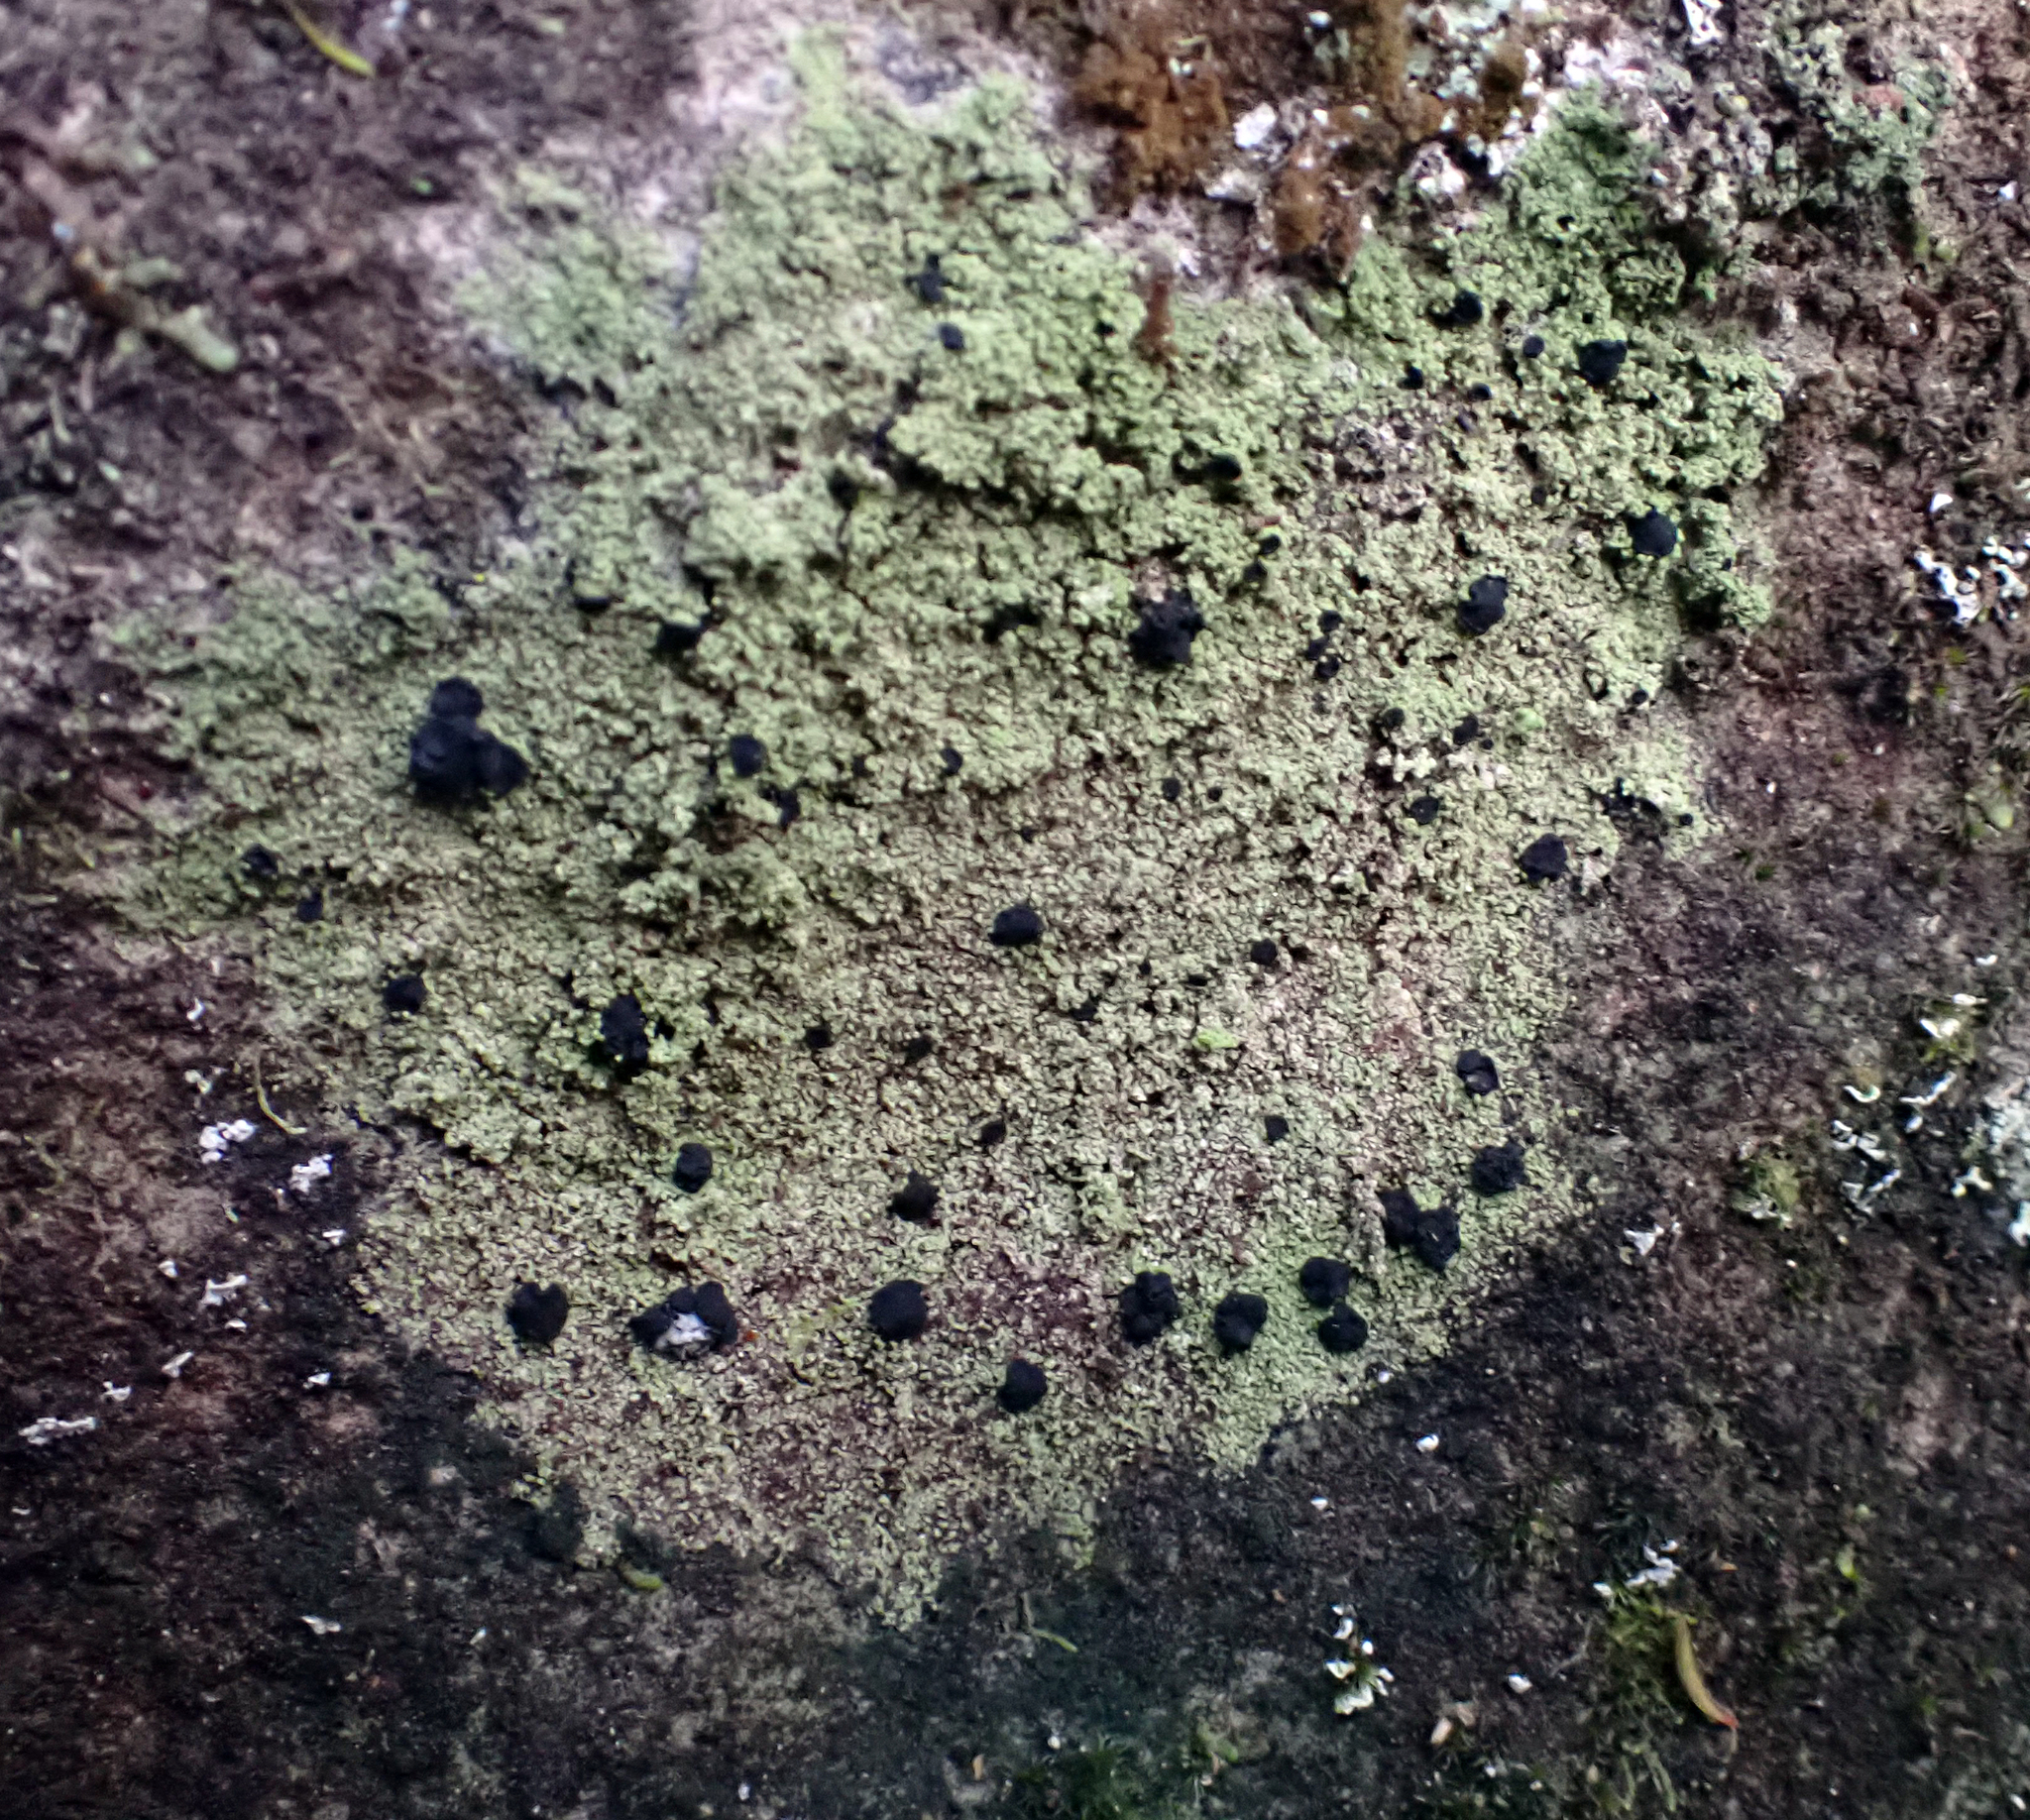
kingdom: Fungi
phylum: Ascomycota
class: Lecanoromycetes
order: Lecanorales
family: Ramalinaceae
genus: Megalaria
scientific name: Megalaria orokonuiana
